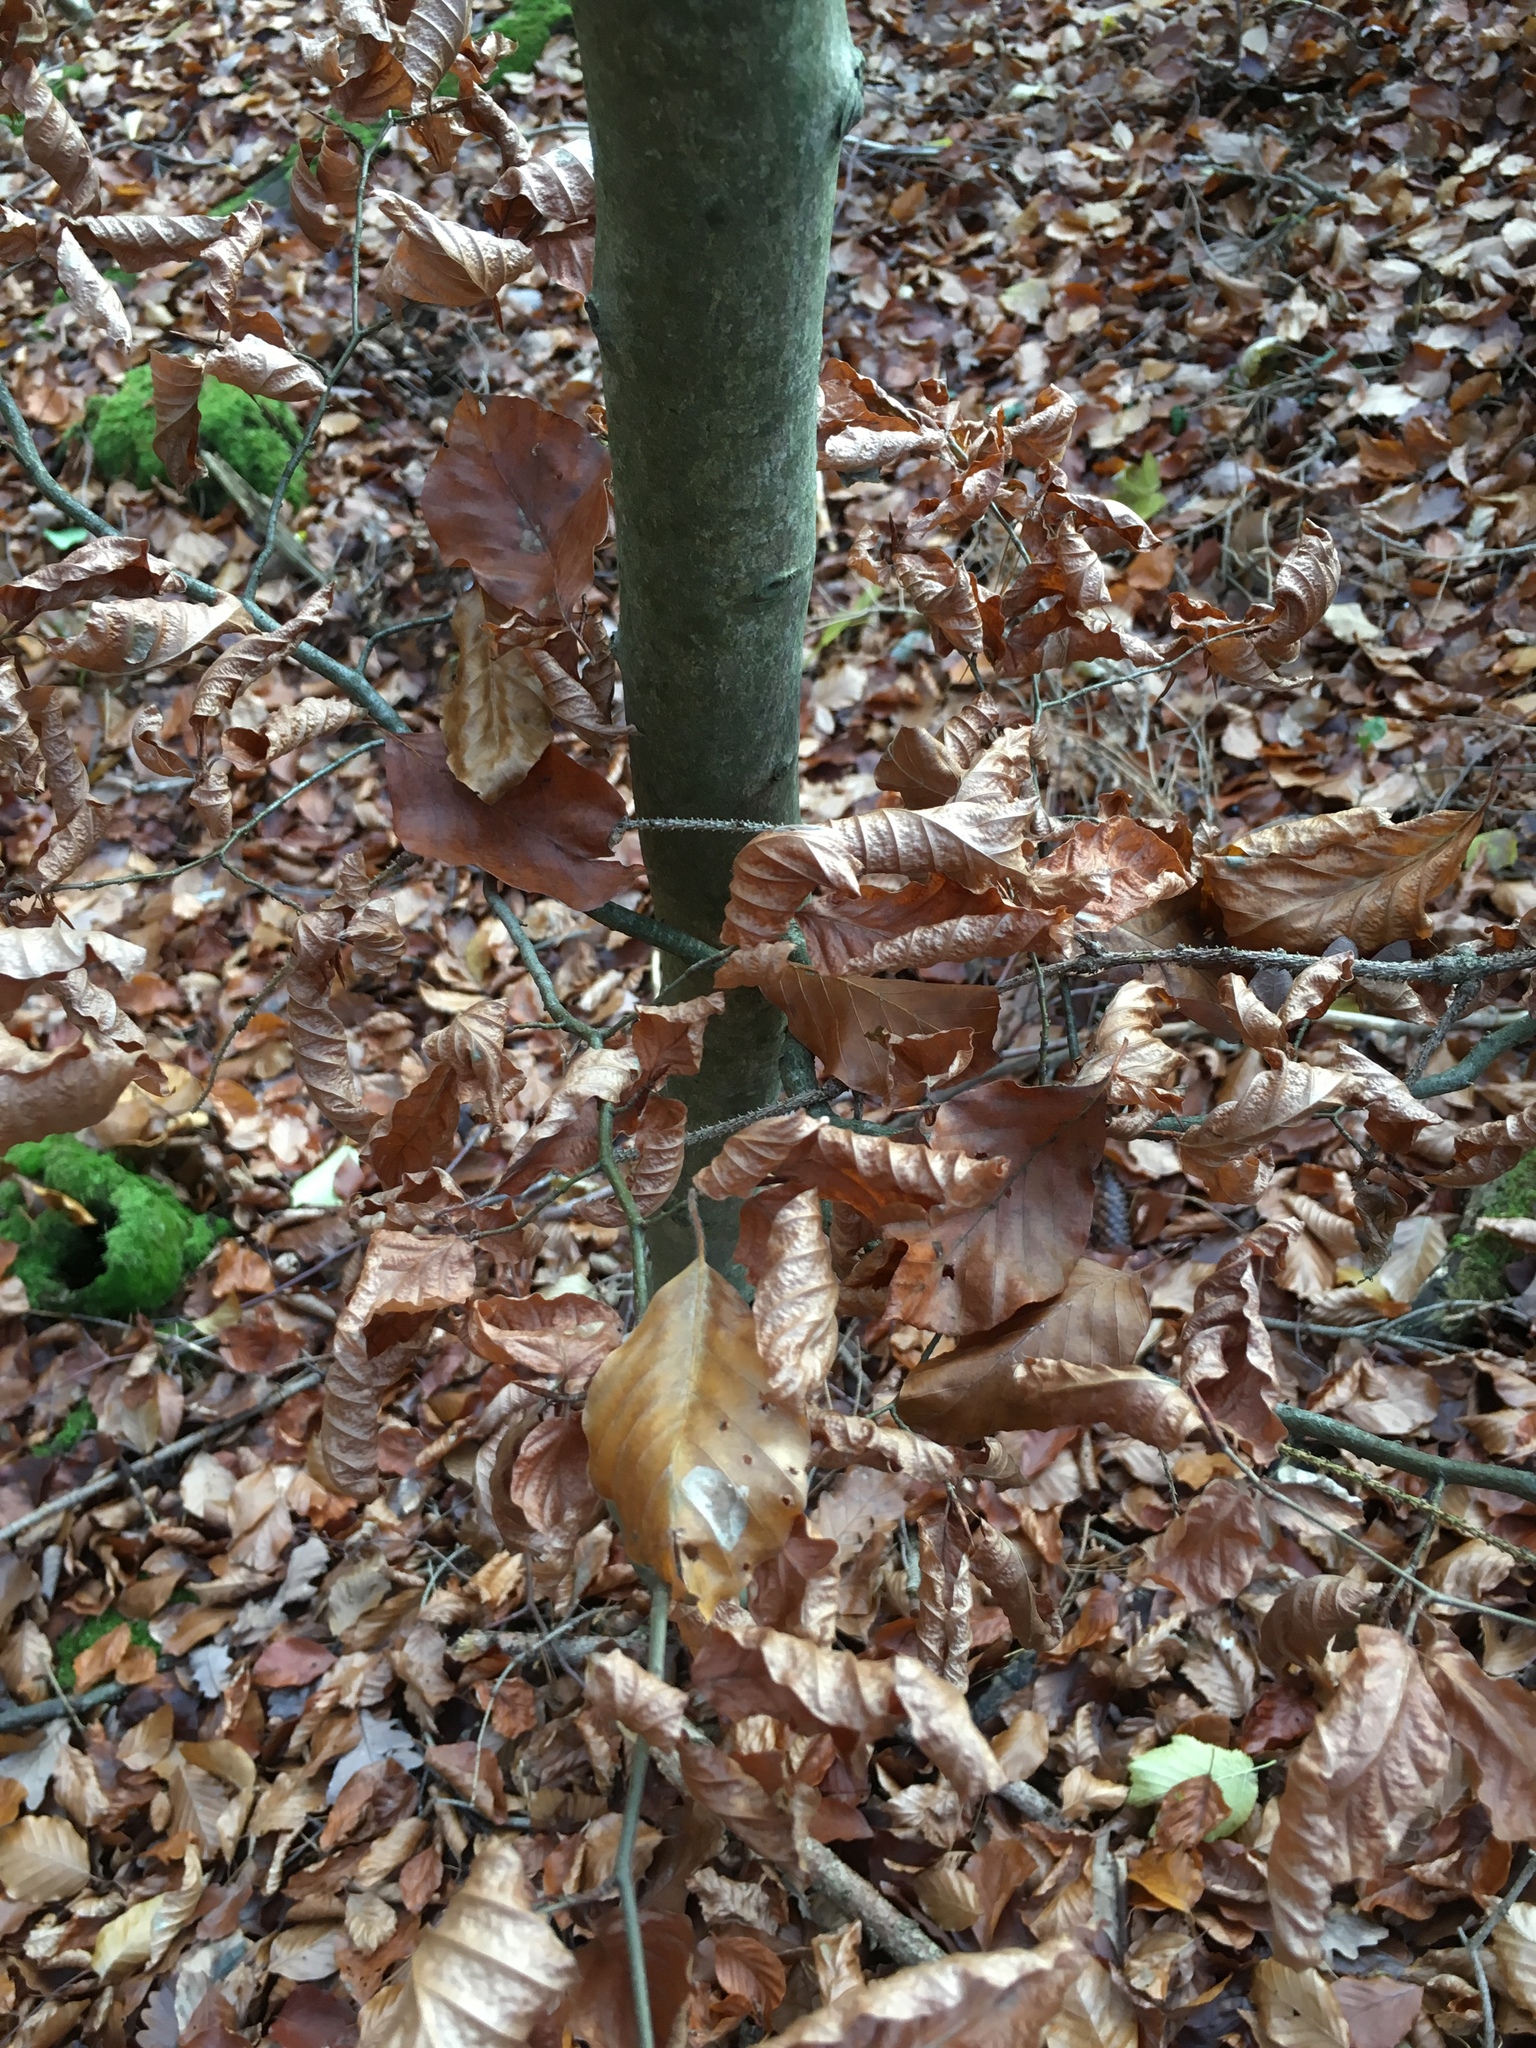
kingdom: Plantae
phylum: Tracheophyta
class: Magnoliopsida
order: Fagales
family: Fagaceae
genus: Fagus
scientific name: Fagus sylvatica
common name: Beech
